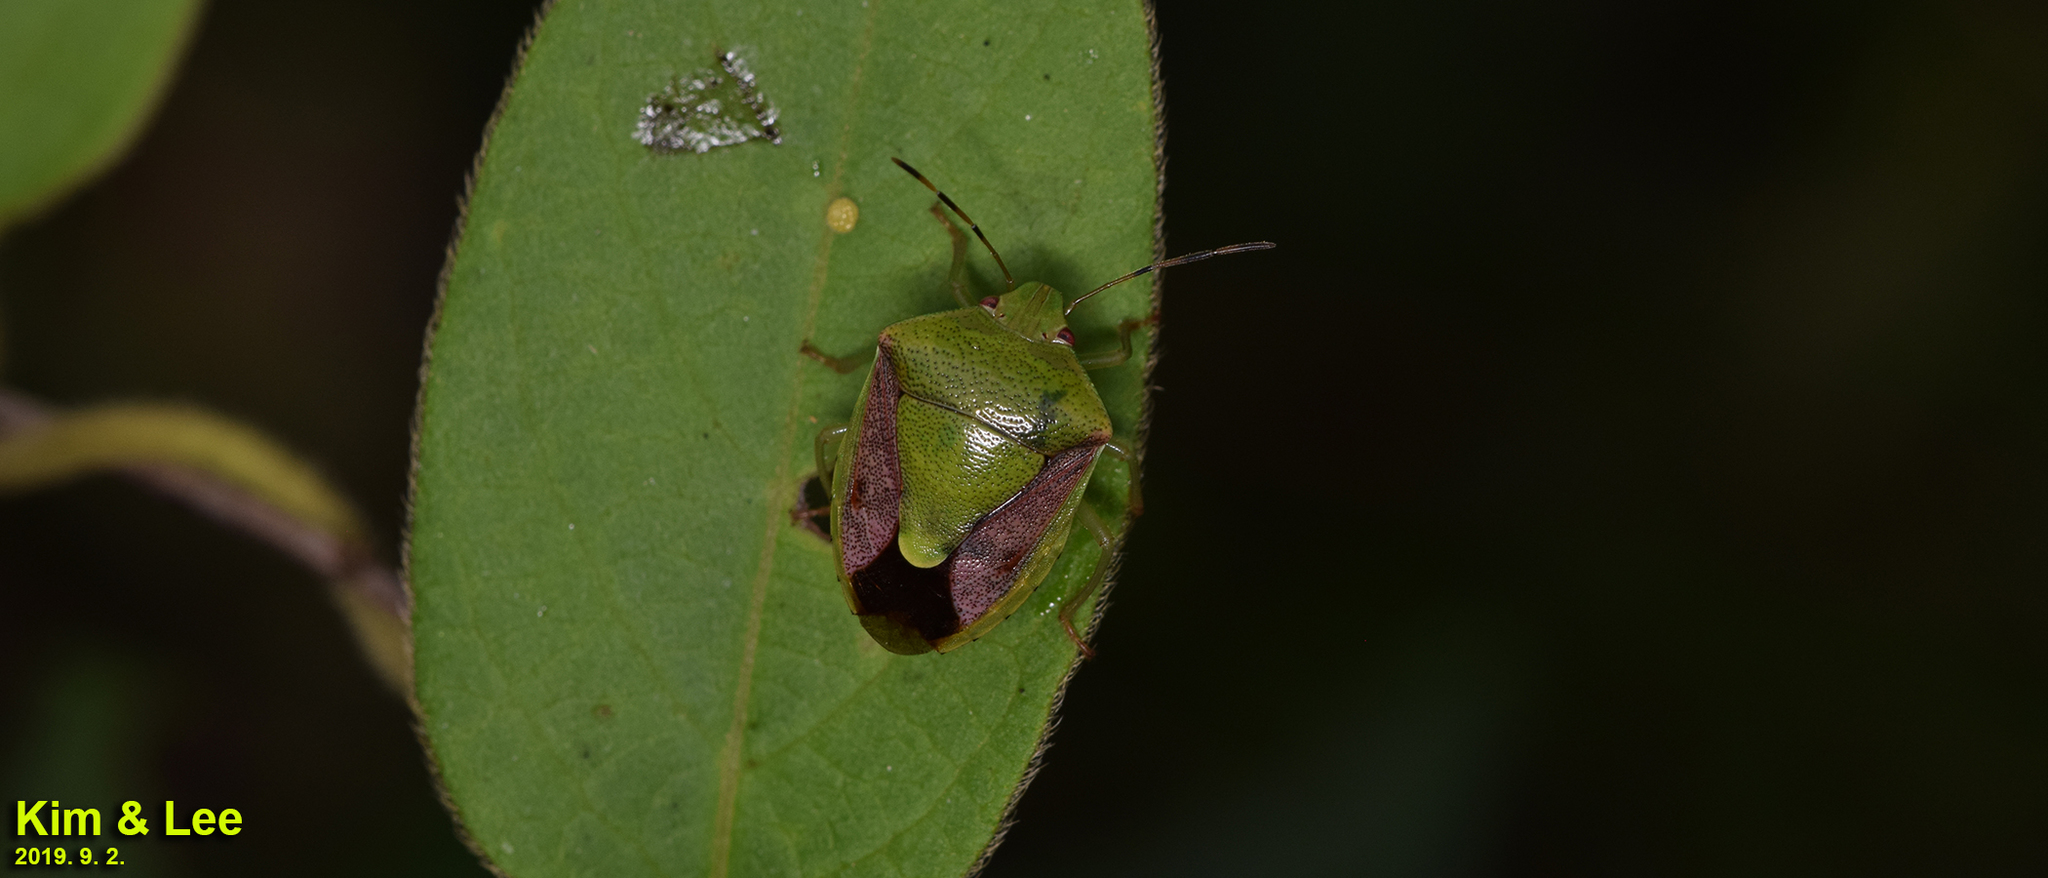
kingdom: Animalia
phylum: Arthropoda
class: Insecta
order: Hemiptera
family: Pentatomidae
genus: Plautia
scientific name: Plautia stali
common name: Stink bug
